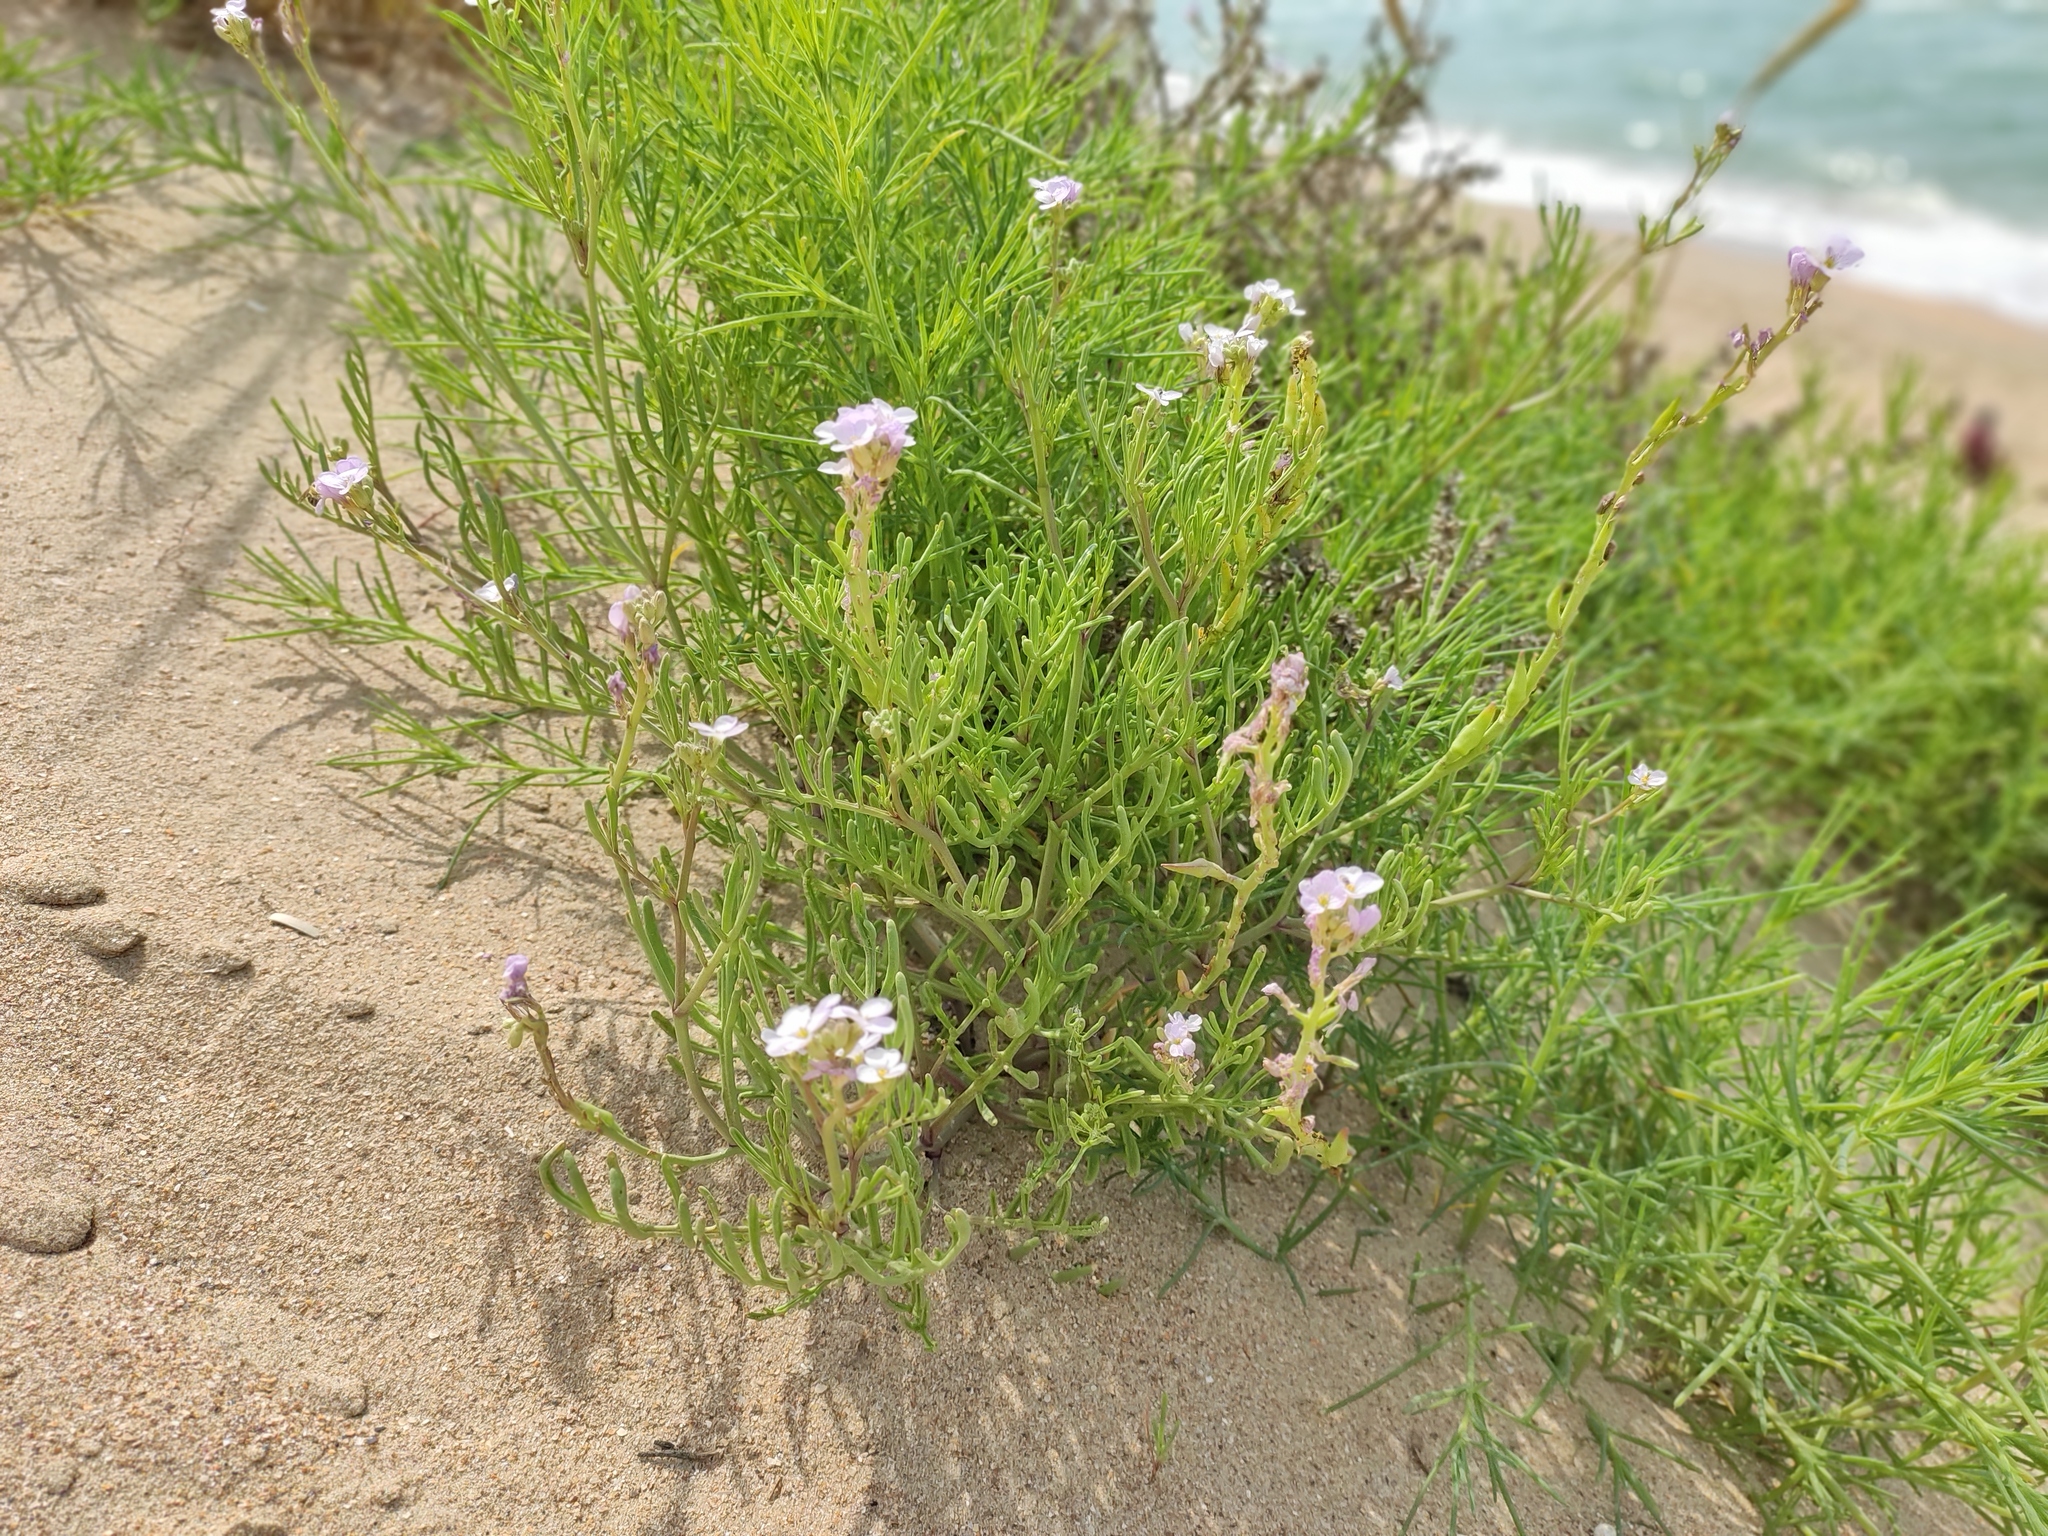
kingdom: Plantae
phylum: Tracheophyta
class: Magnoliopsida
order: Brassicales
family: Brassicaceae
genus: Cakile
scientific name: Cakile maritima
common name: Sea rocket
